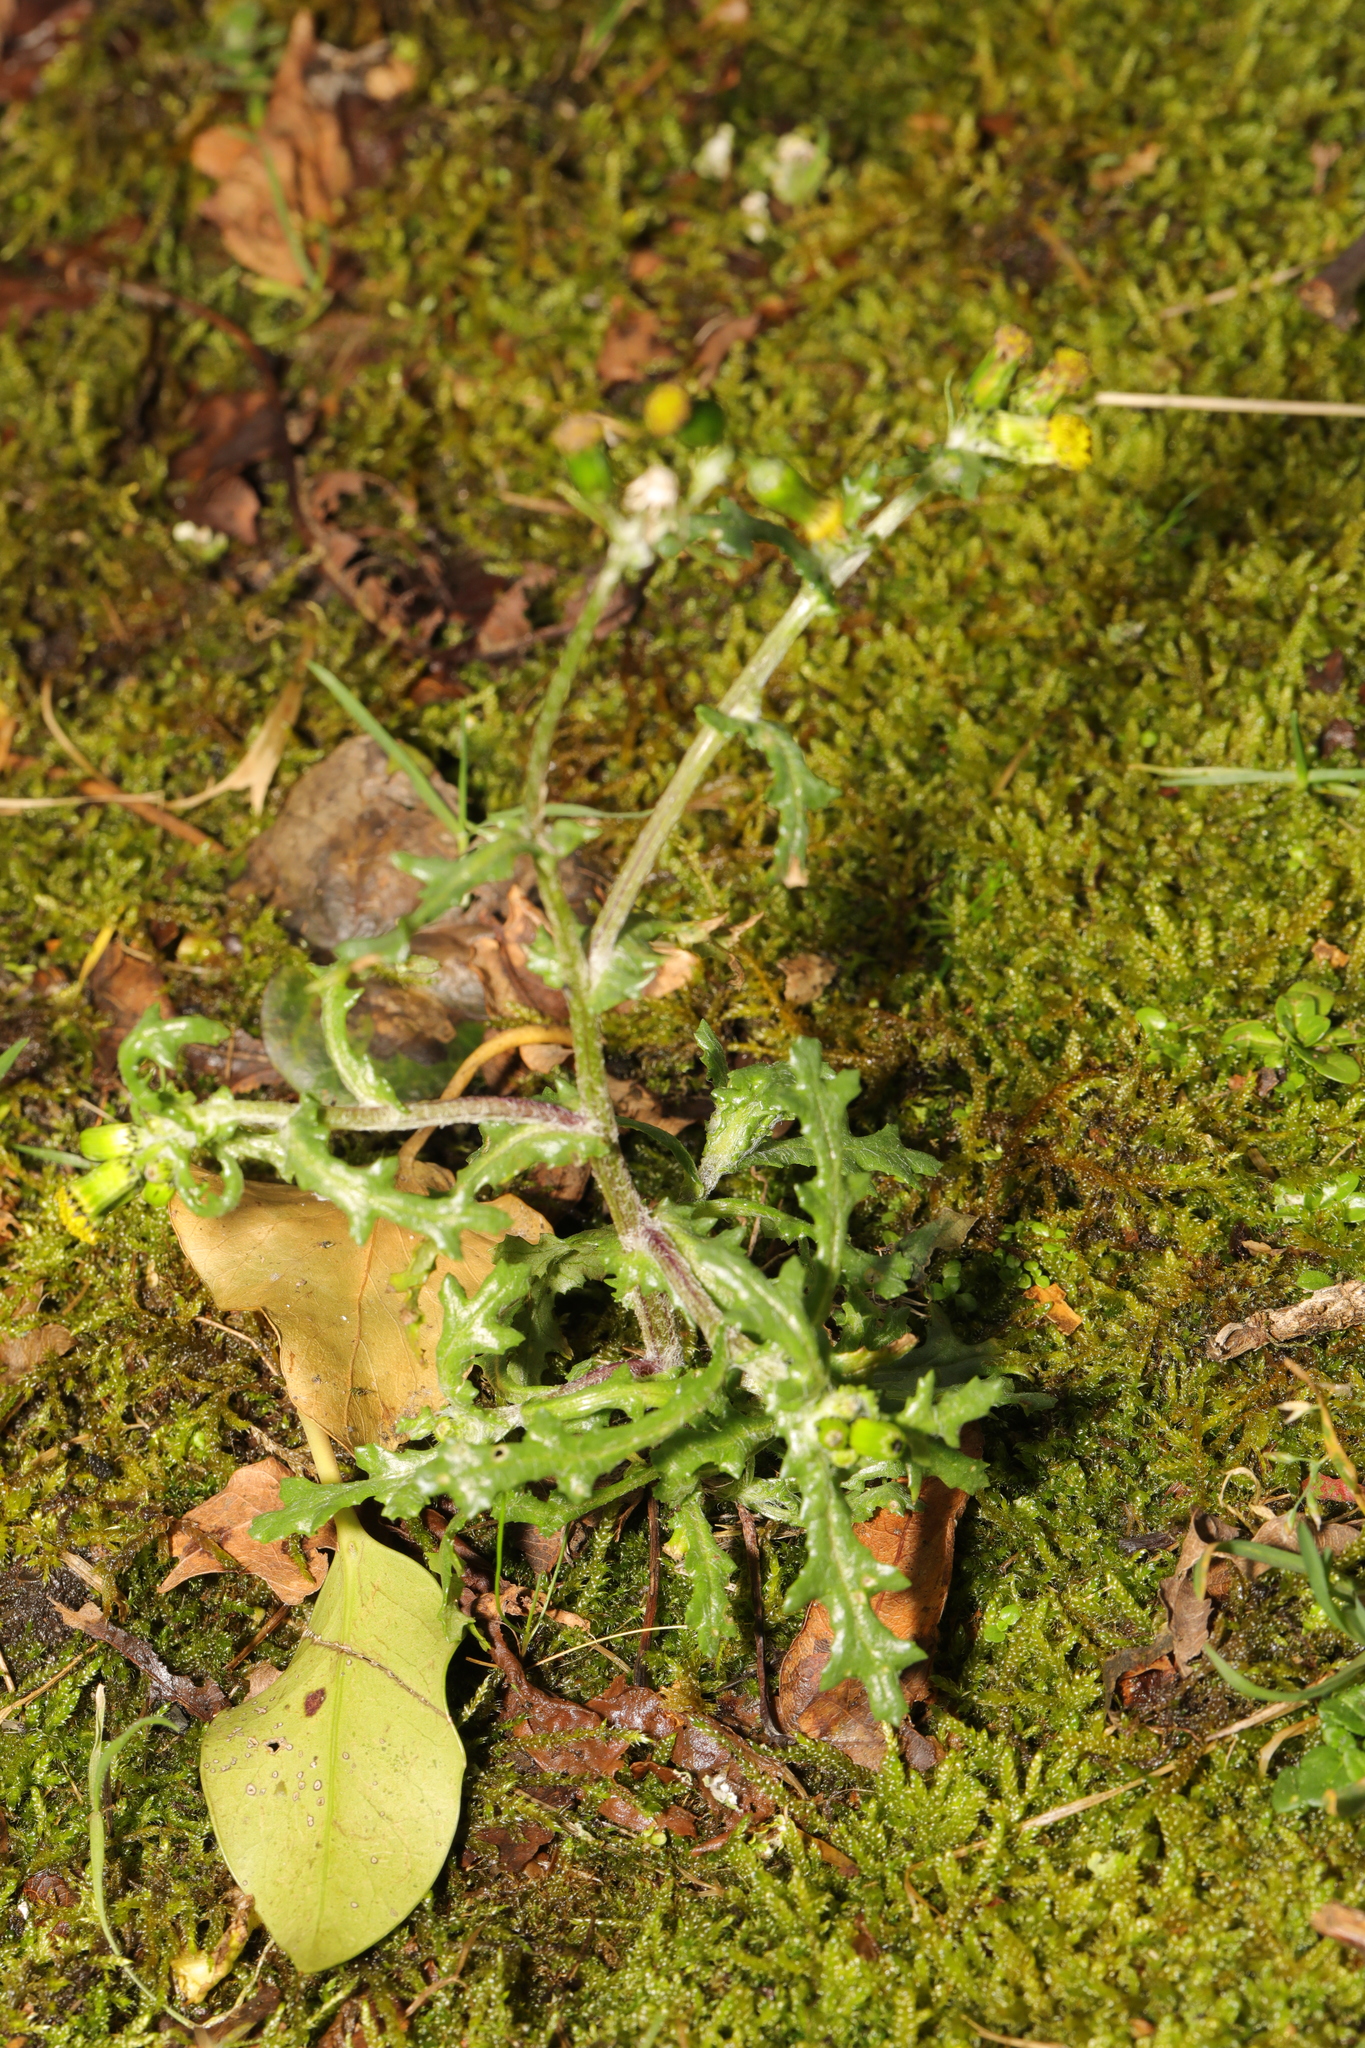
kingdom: Plantae
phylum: Tracheophyta
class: Magnoliopsida
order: Asterales
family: Asteraceae
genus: Senecio
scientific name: Senecio vulgaris
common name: Old-man-in-the-spring
